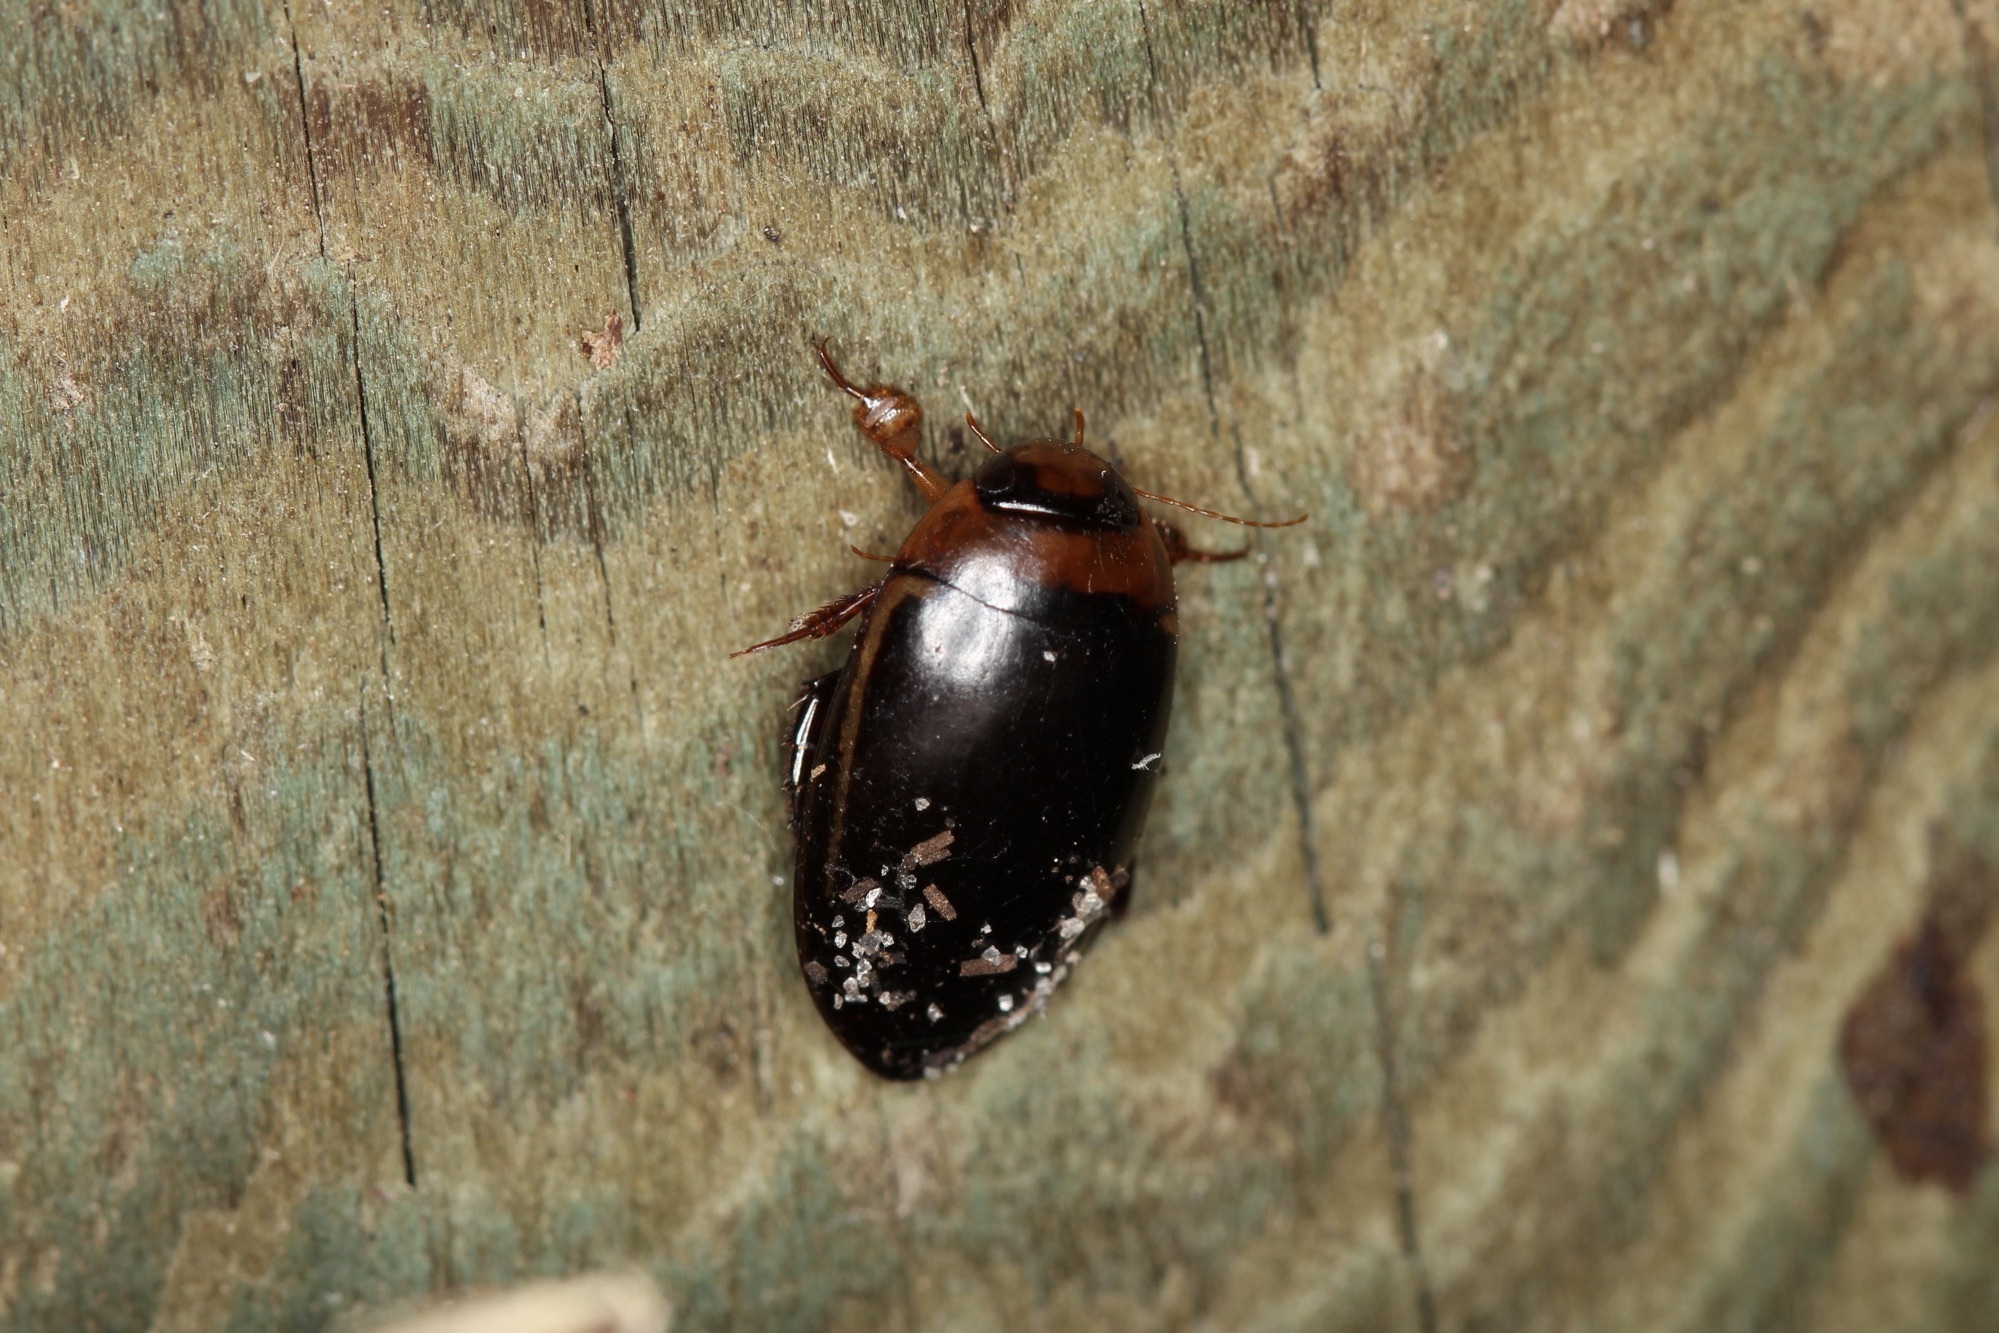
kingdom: Animalia
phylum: Arthropoda
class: Insecta
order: Coleoptera
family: Dytiscidae
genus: Hydaticus
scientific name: Hydaticus bimarginatus
